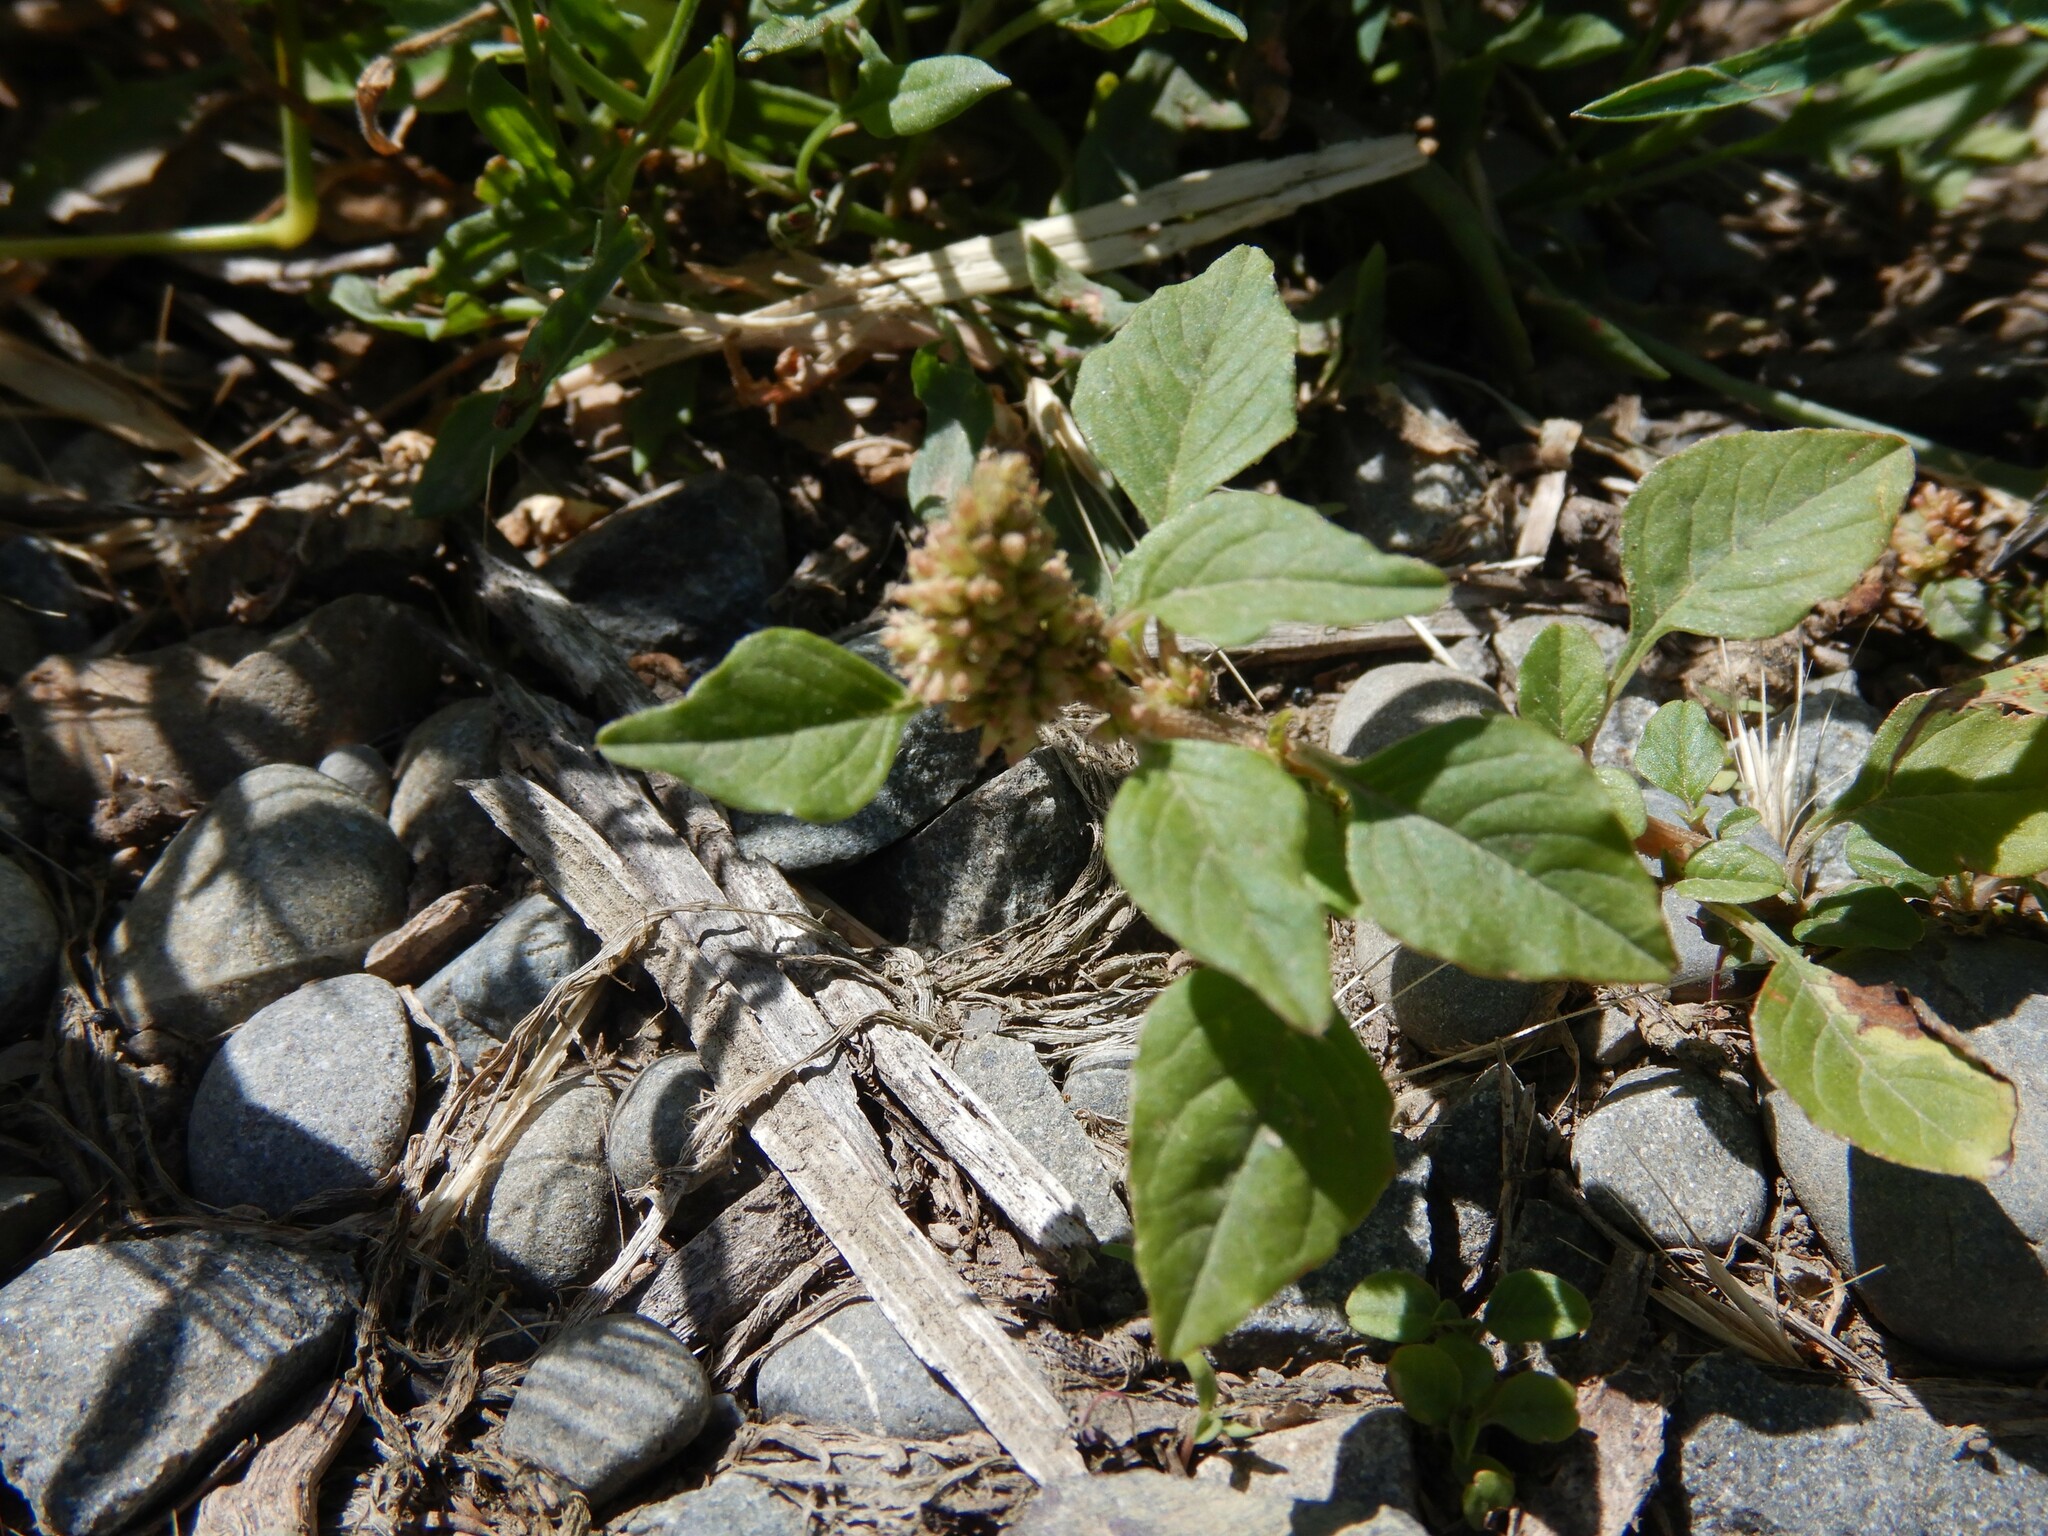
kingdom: Plantae
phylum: Tracheophyta
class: Magnoliopsida
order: Caryophyllales
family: Amaranthaceae
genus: Amaranthus
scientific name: Amaranthus deflexus
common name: Perennial pigweed
